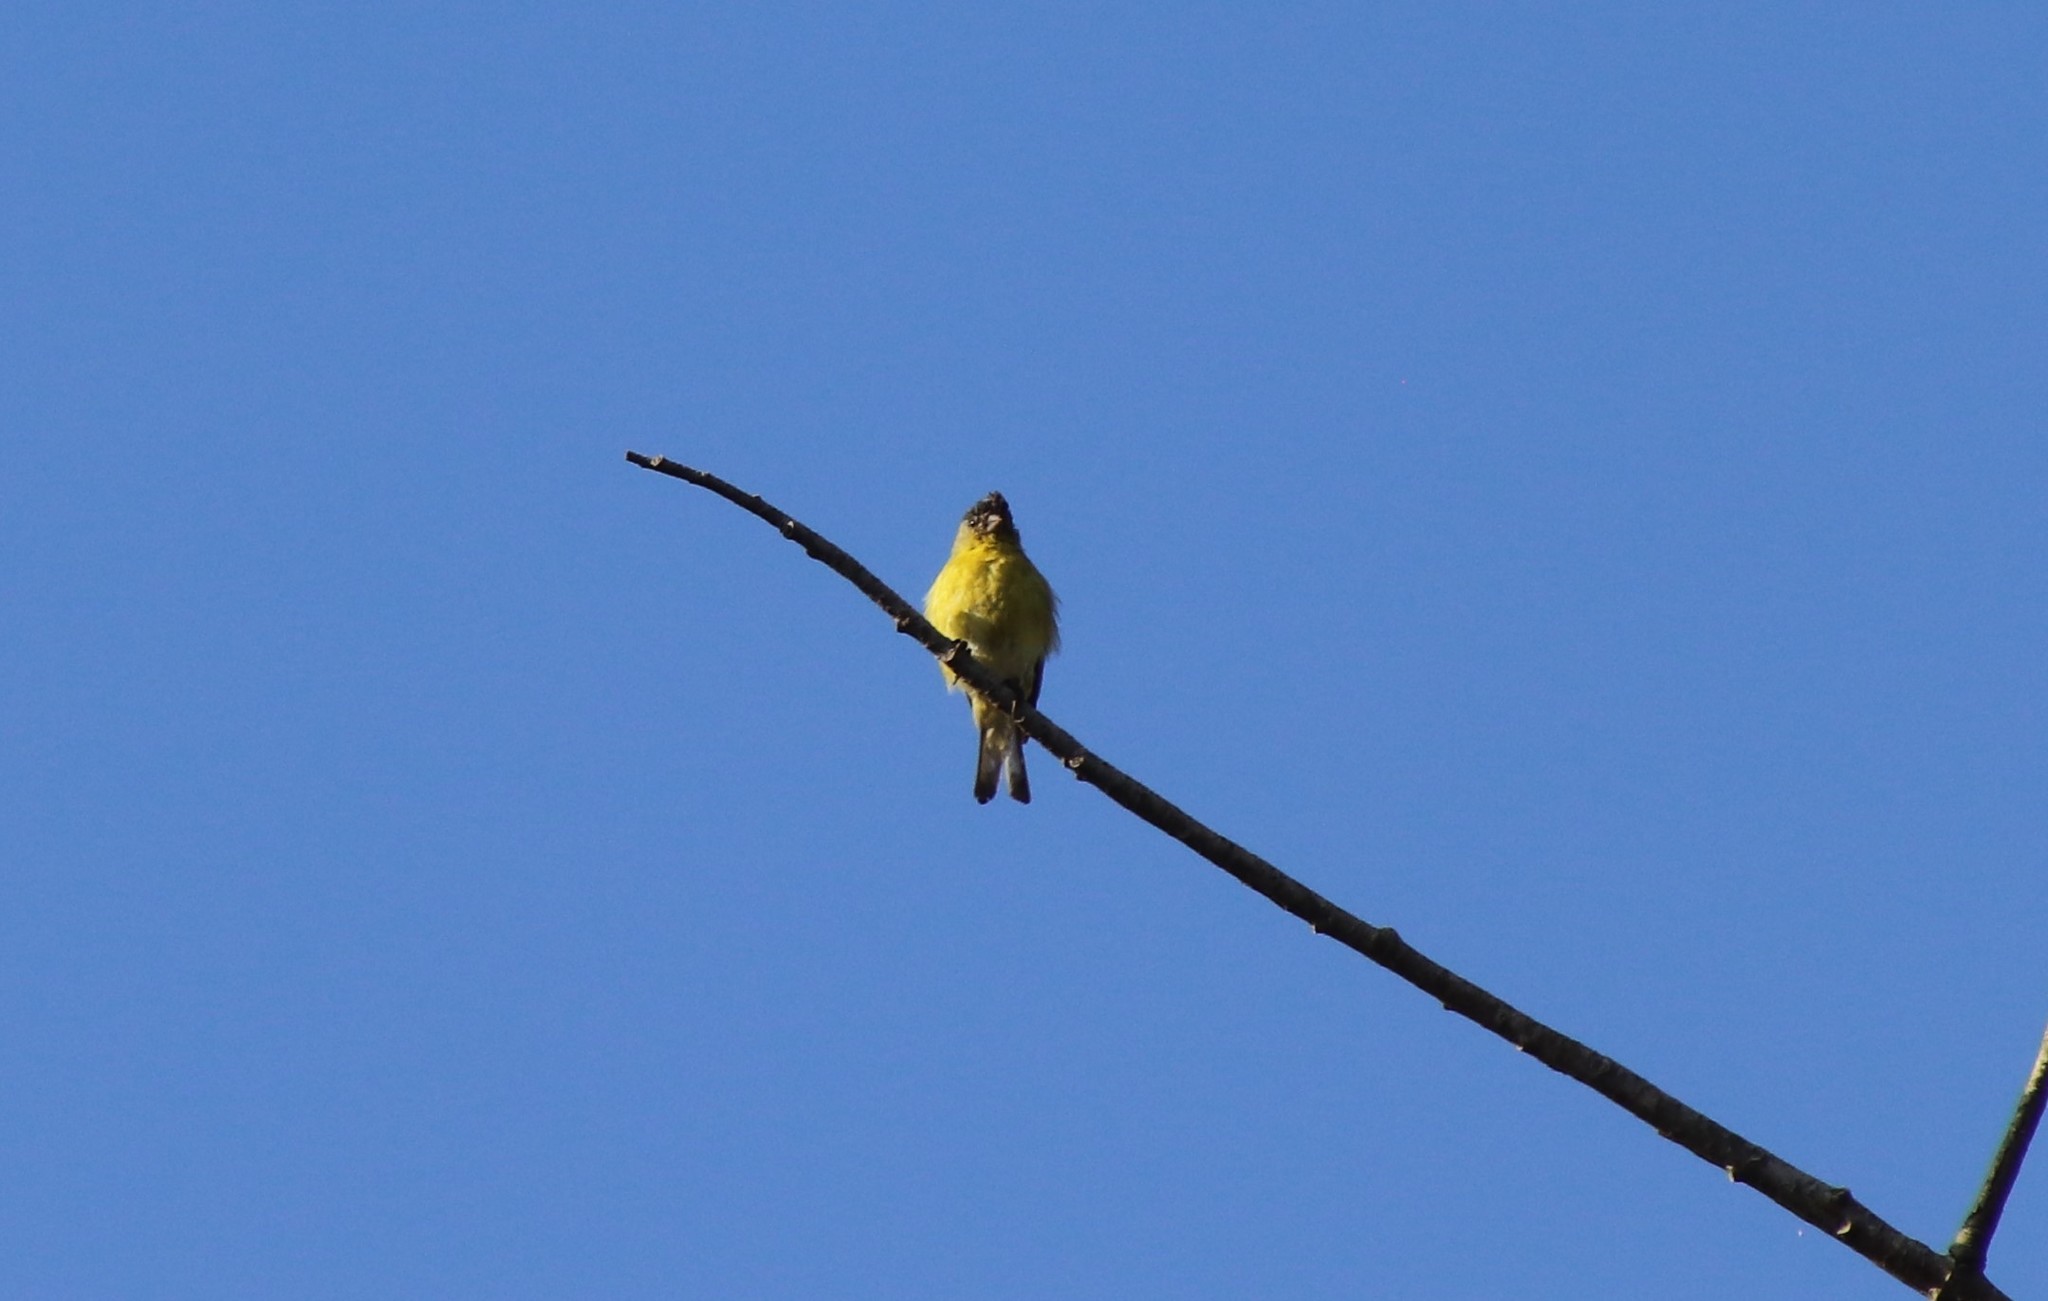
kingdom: Animalia
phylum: Chordata
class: Aves
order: Passeriformes
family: Fringillidae
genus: Spinus
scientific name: Spinus psaltria
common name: Lesser goldfinch
